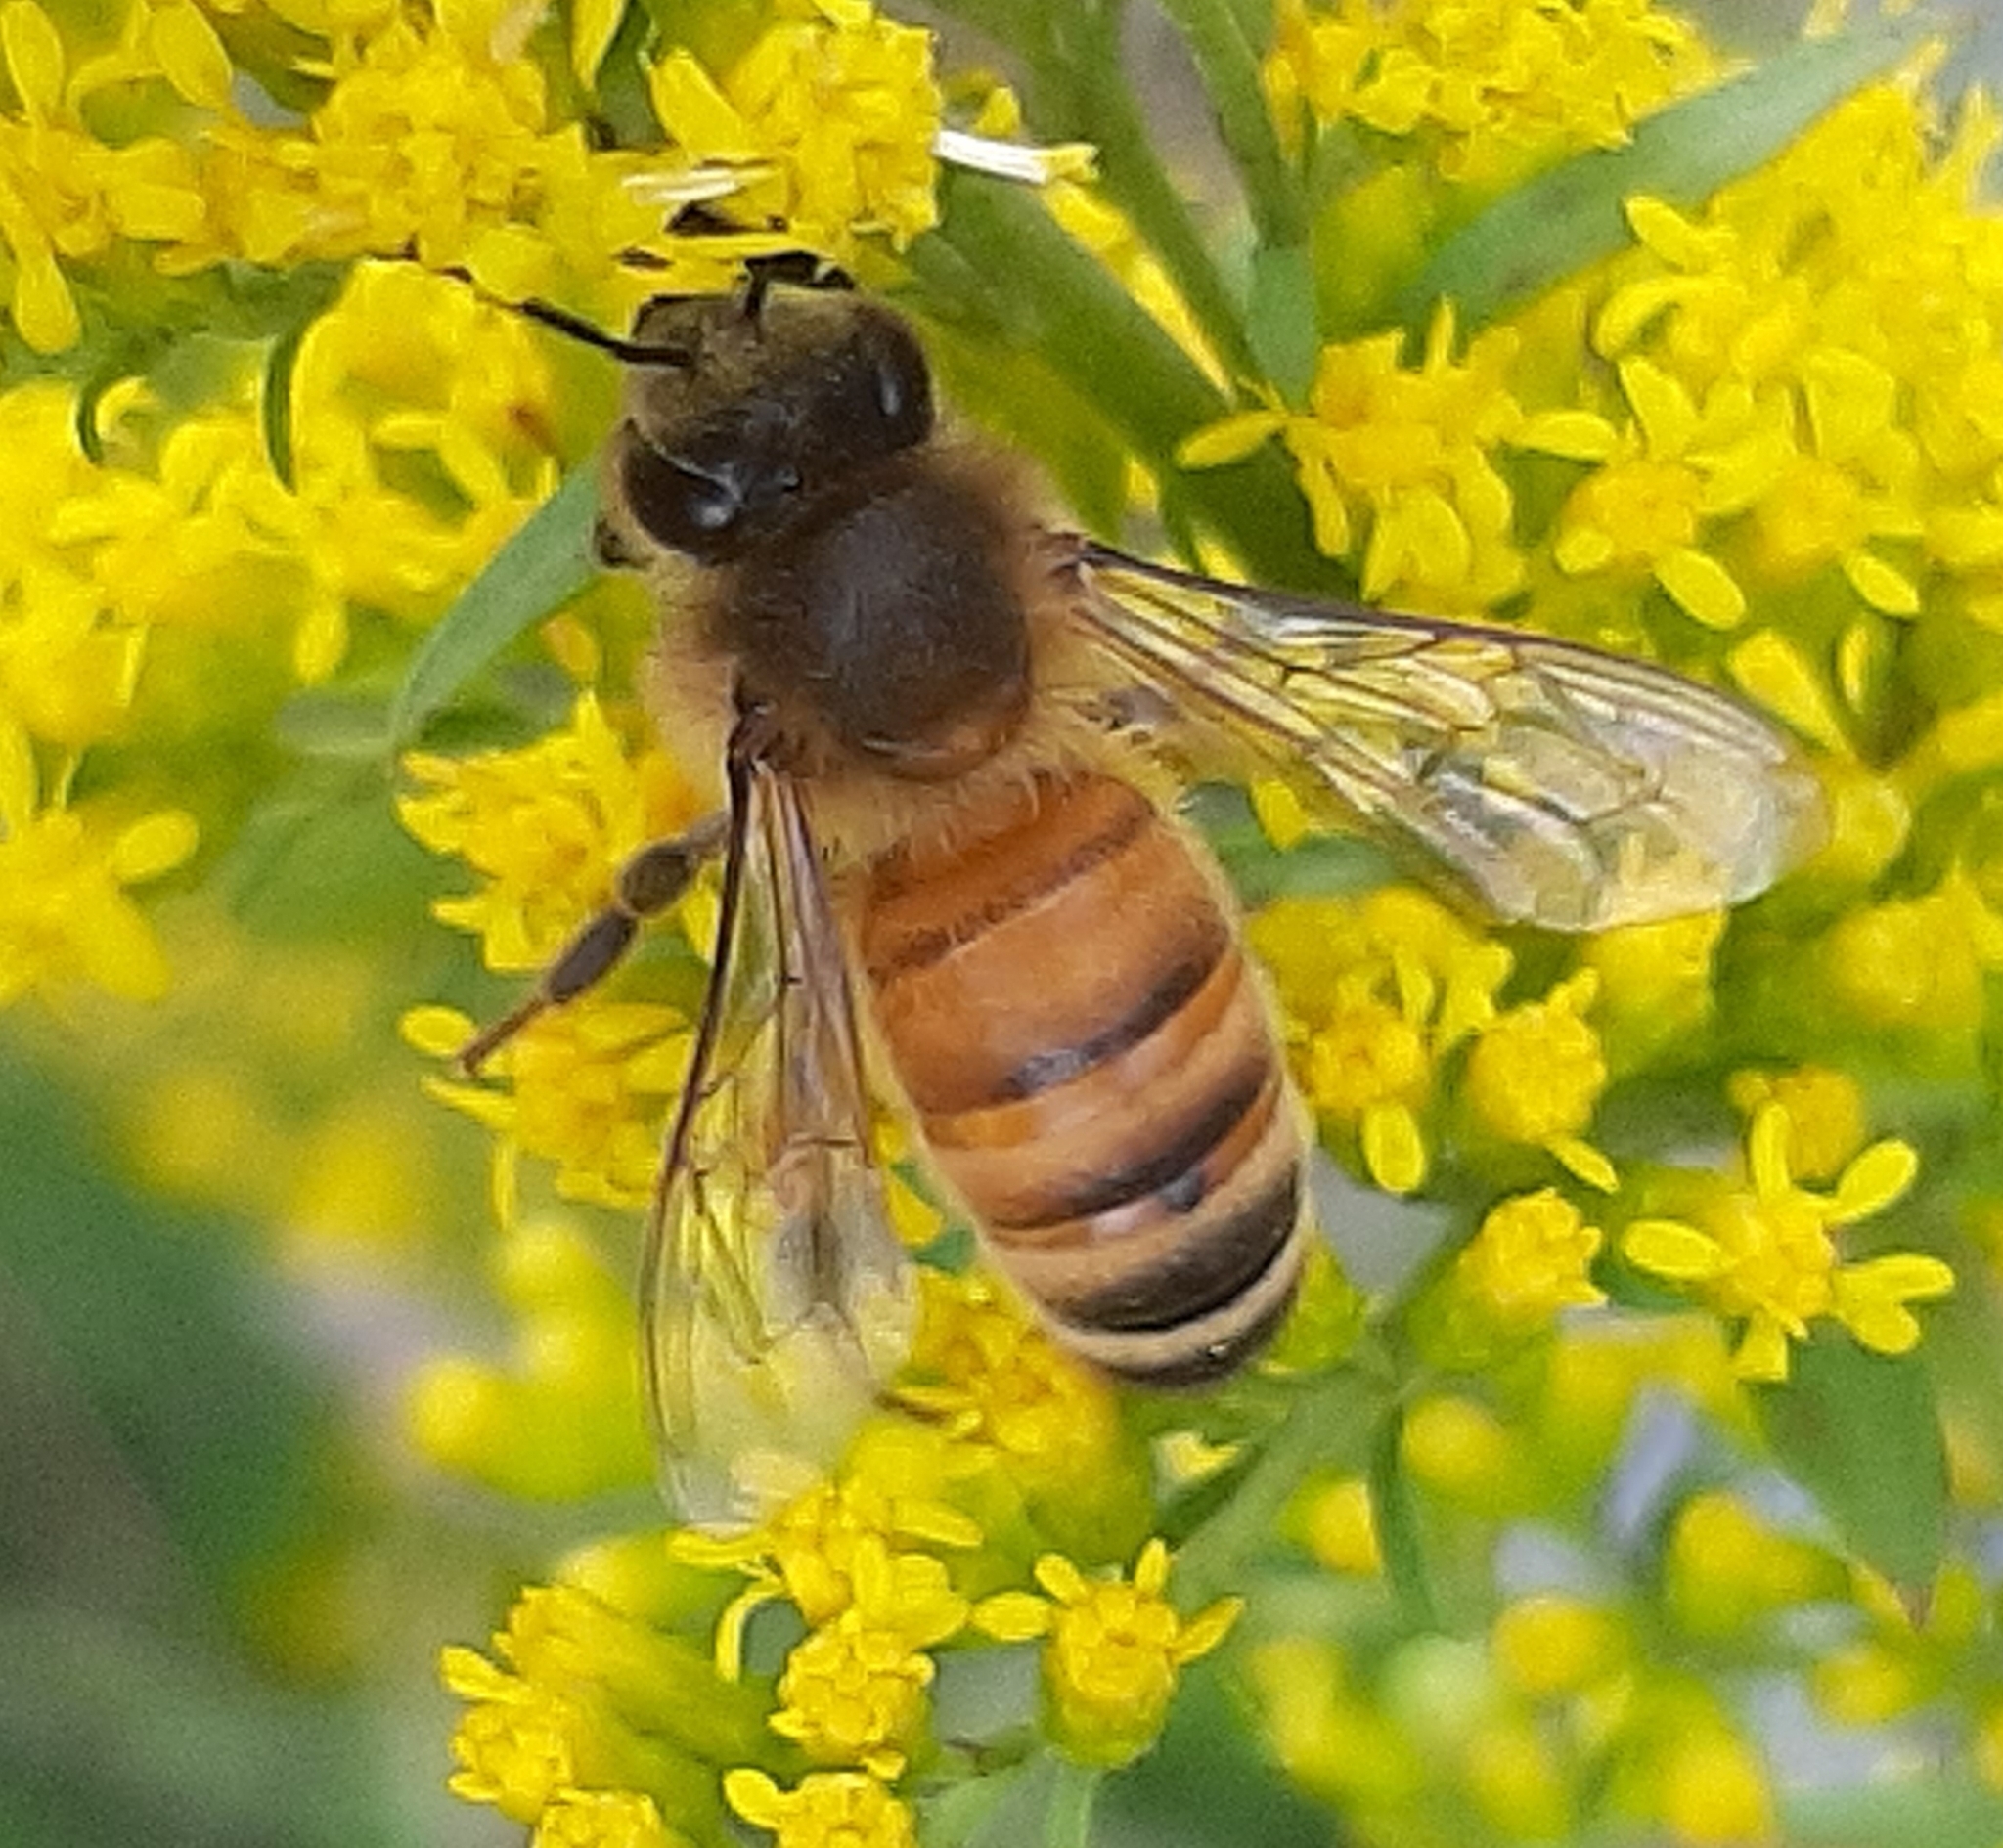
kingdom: Animalia
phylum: Arthropoda
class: Insecta
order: Hymenoptera
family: Apidae
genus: Apis
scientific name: Apis mellifera
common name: Honey bee
